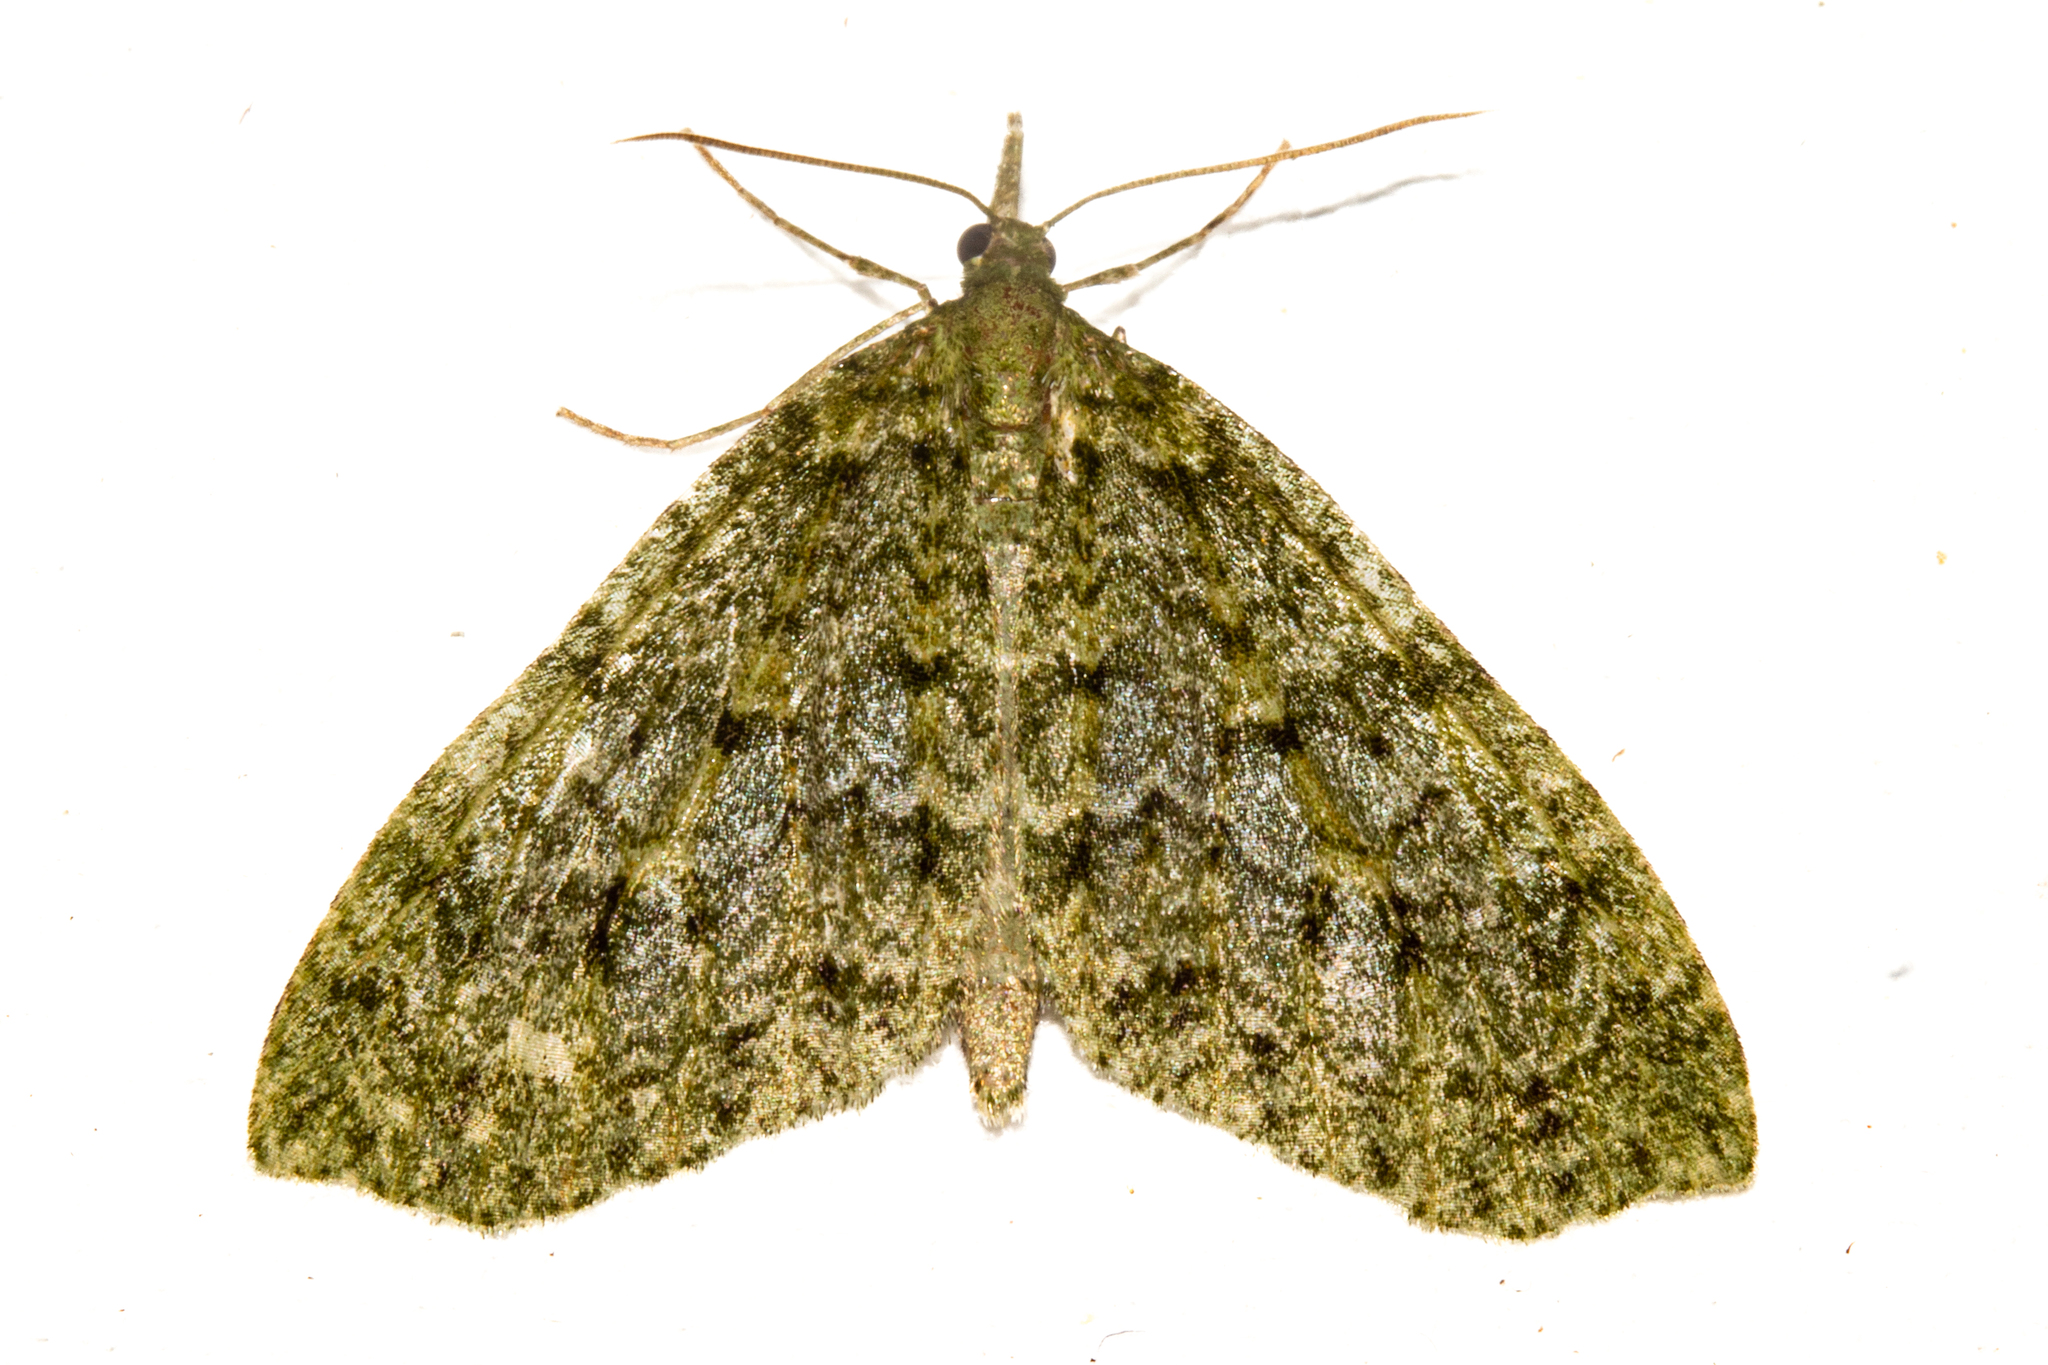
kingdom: Animalia
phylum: Arthropoda
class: Insecta
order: Lepidoptera
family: Geometridae
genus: Tatosoma
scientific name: Tatosoma monoviridisata
